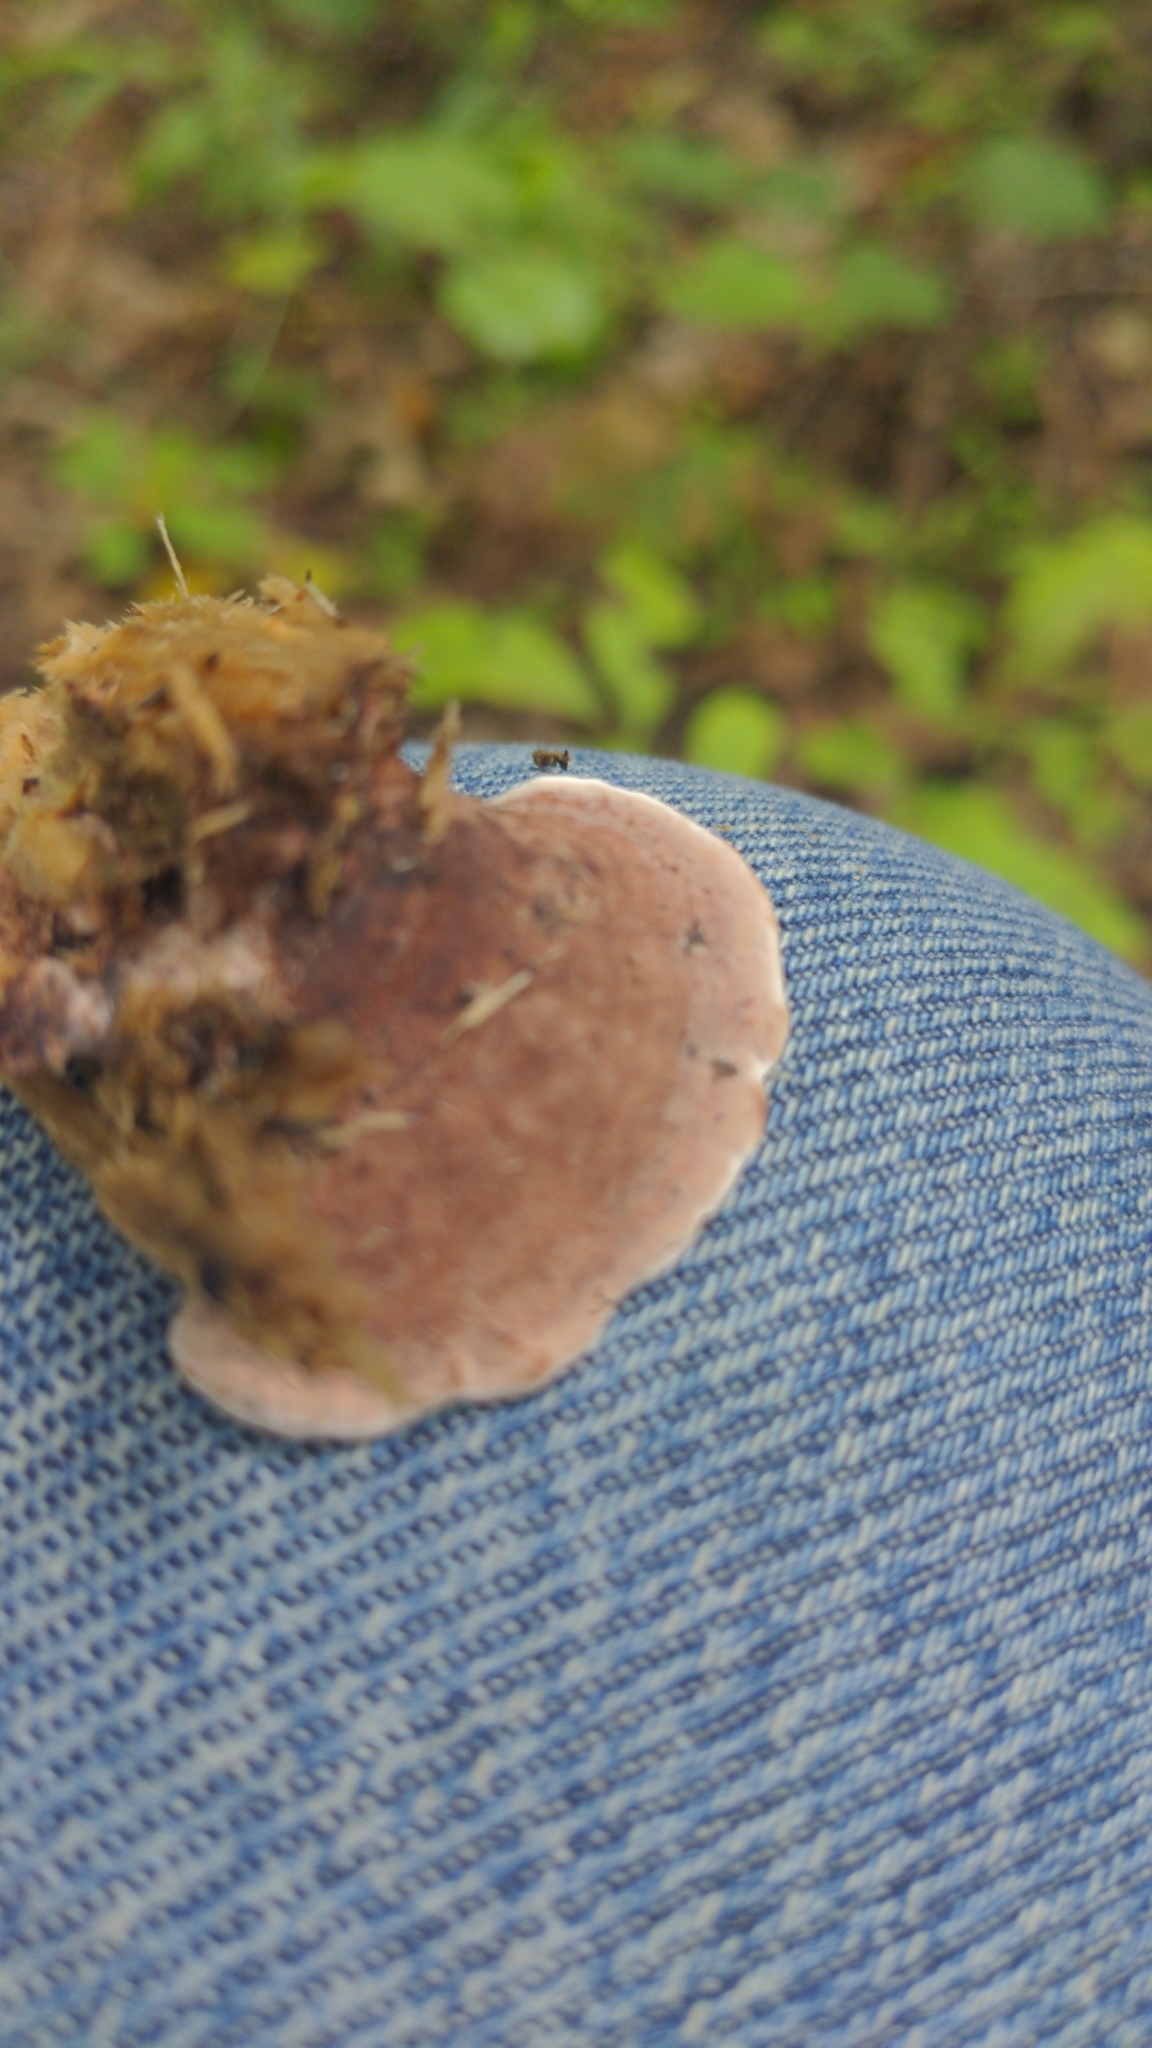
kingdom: Fungi
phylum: Basidiomycota
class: Agaricomycetes
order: Polyporales
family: Steccherinaceae
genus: Nigroporus
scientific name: Nigroporus vinosus
